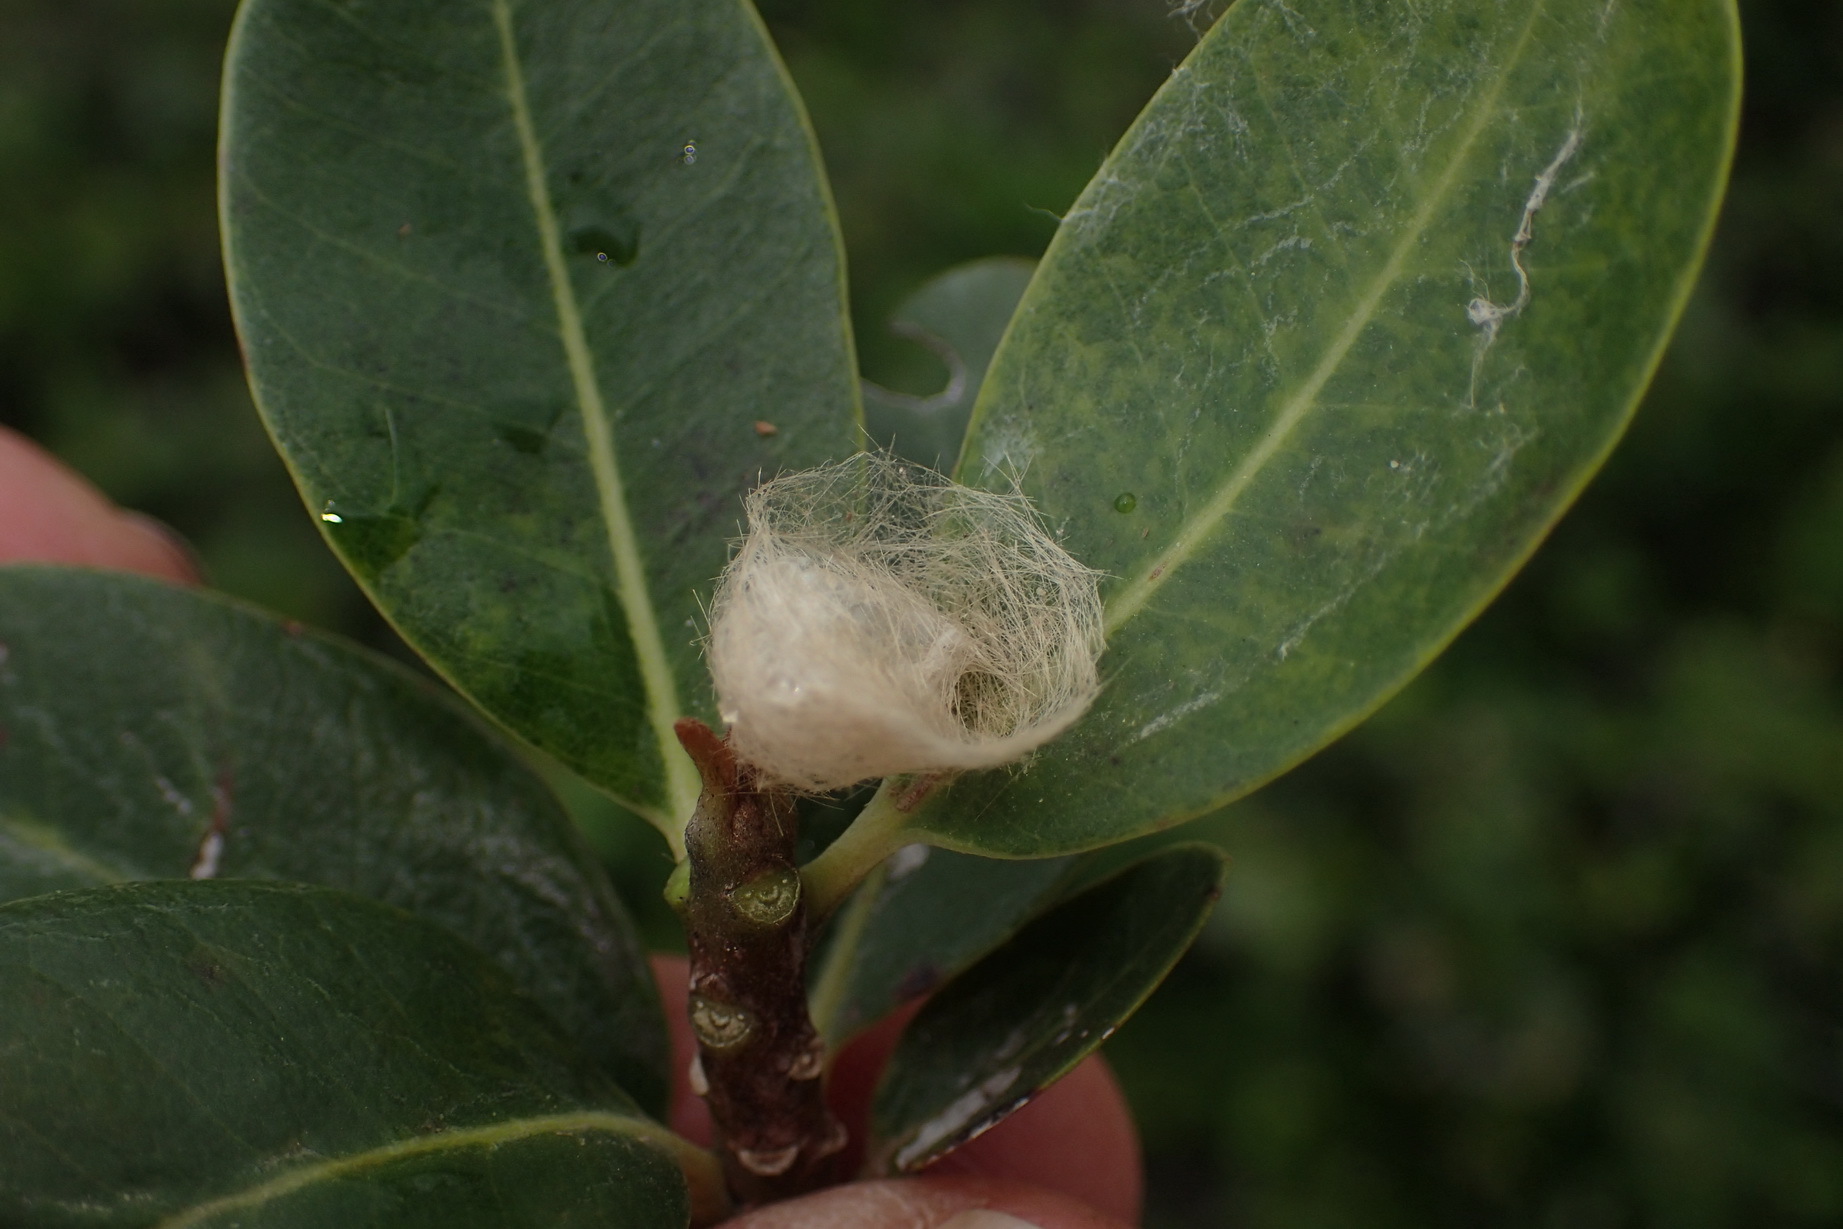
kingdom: Plantae
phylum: Tracheophyta
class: Magnoliopsida
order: Ericales
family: Sapotaceae
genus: Sideroxylon
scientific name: Sideroxylon inerme
